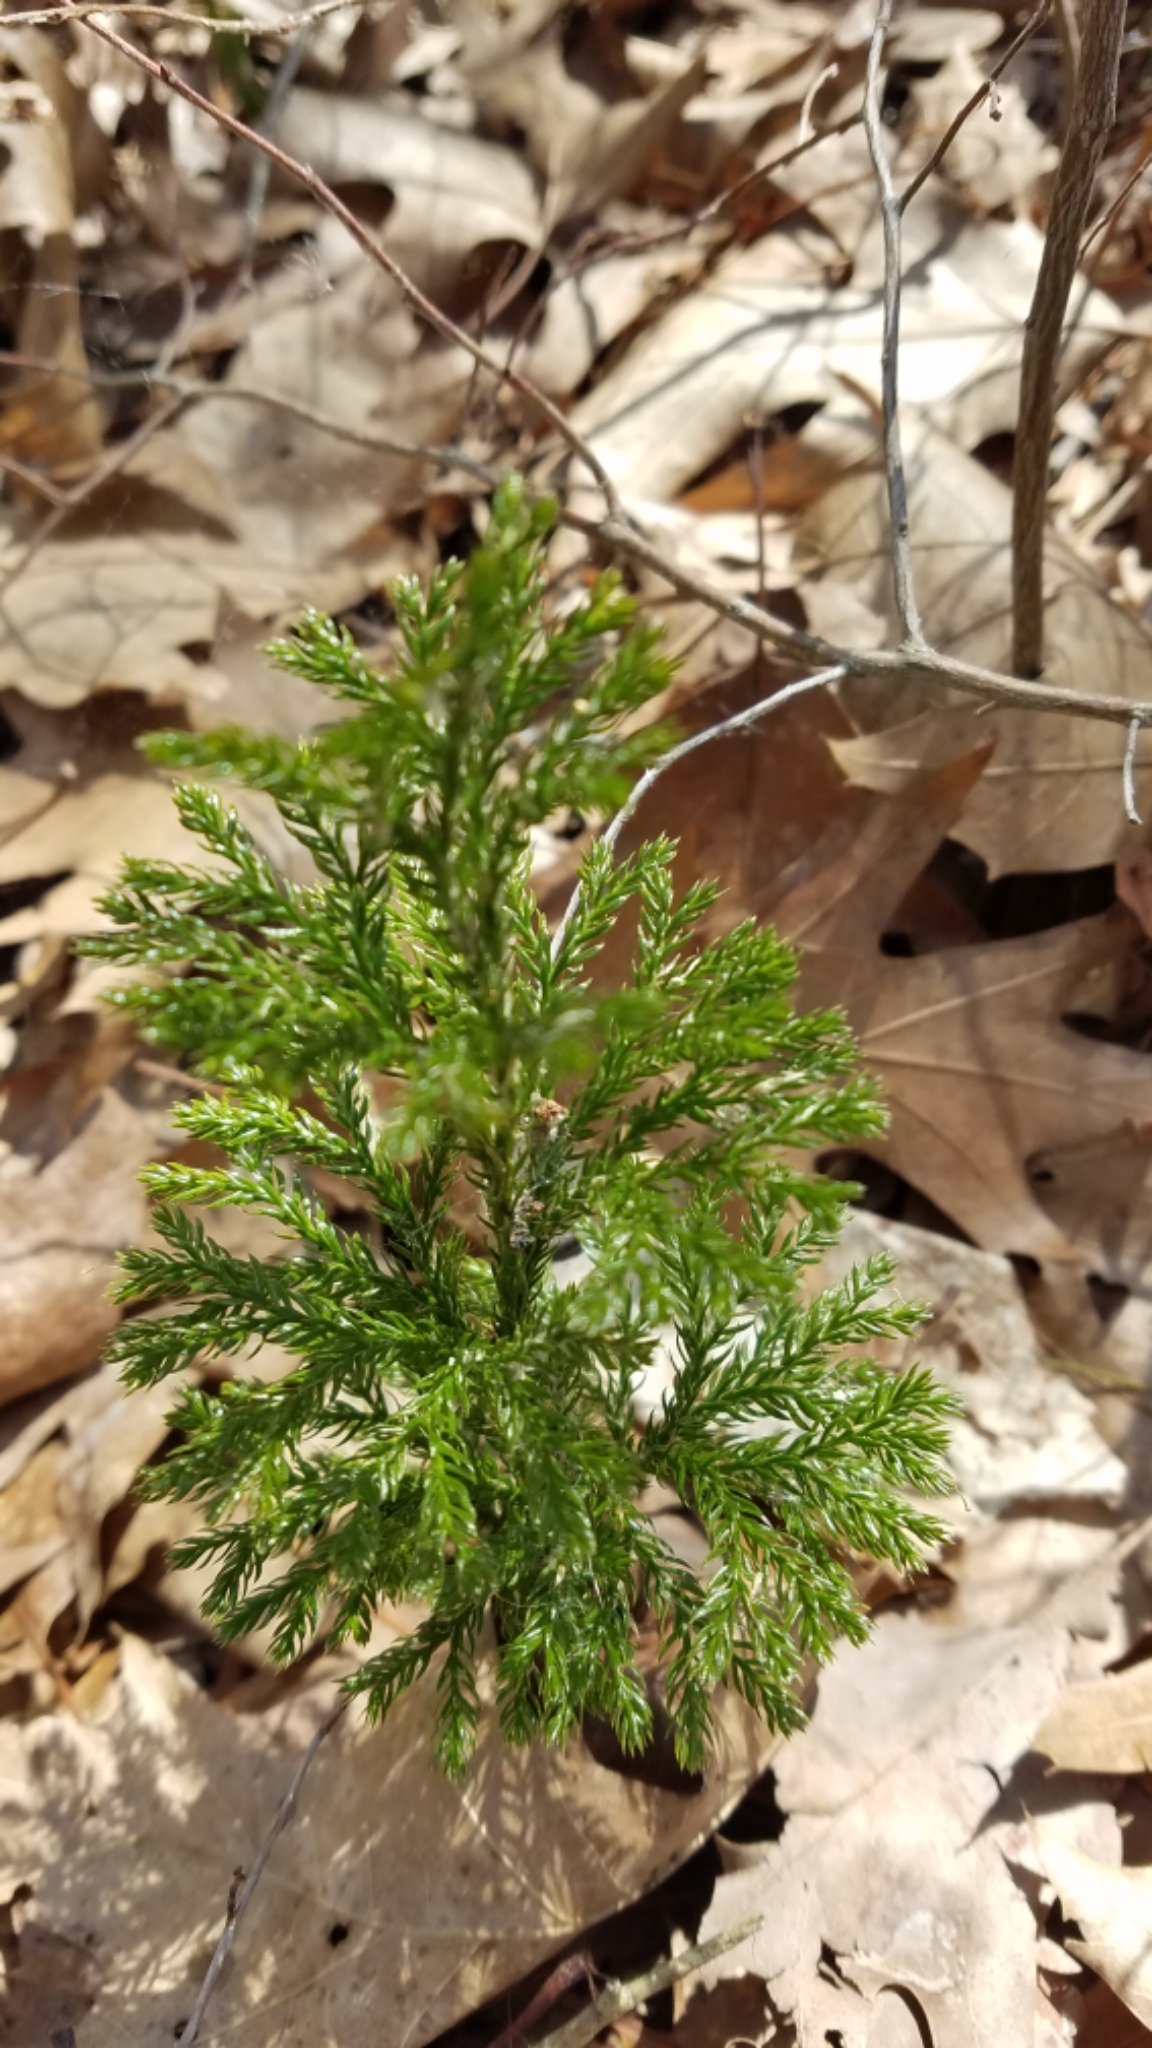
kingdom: Plantae
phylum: Tracheophyta
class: Lycopodiopsida
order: Lycopodiales
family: Lycopodiaceae
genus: Dendrolycopodium
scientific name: Dendrolycopodium hickeyi
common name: Hickey's clubmoss
